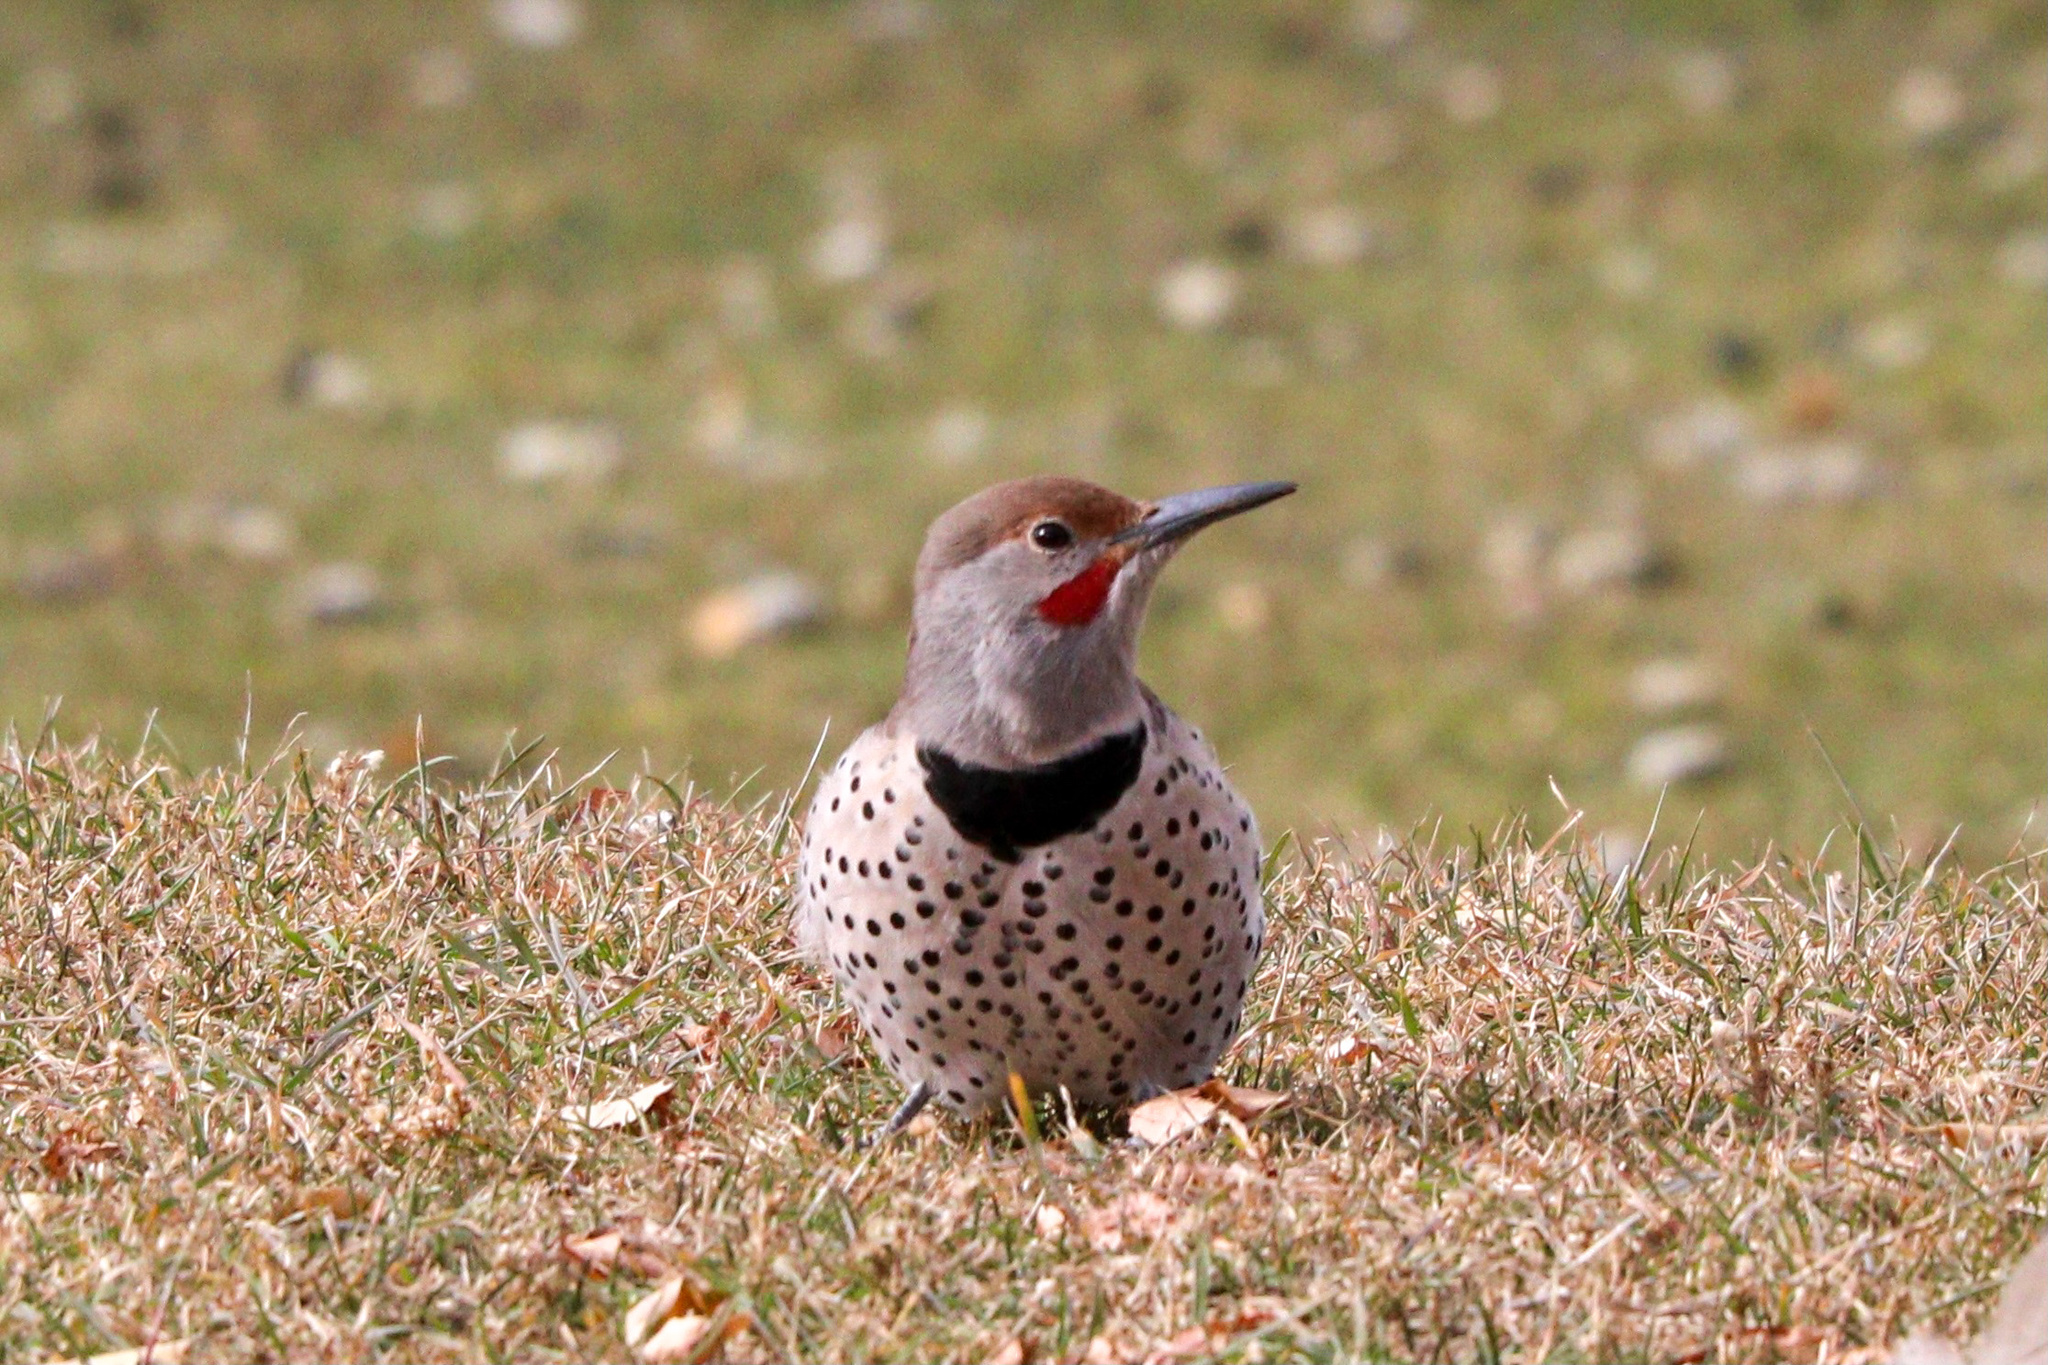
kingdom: Animalia
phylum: Chordata
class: Aves
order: Piciformes
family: Picidae
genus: Colaptes
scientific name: Colaptes auratus
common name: Northern flicker
